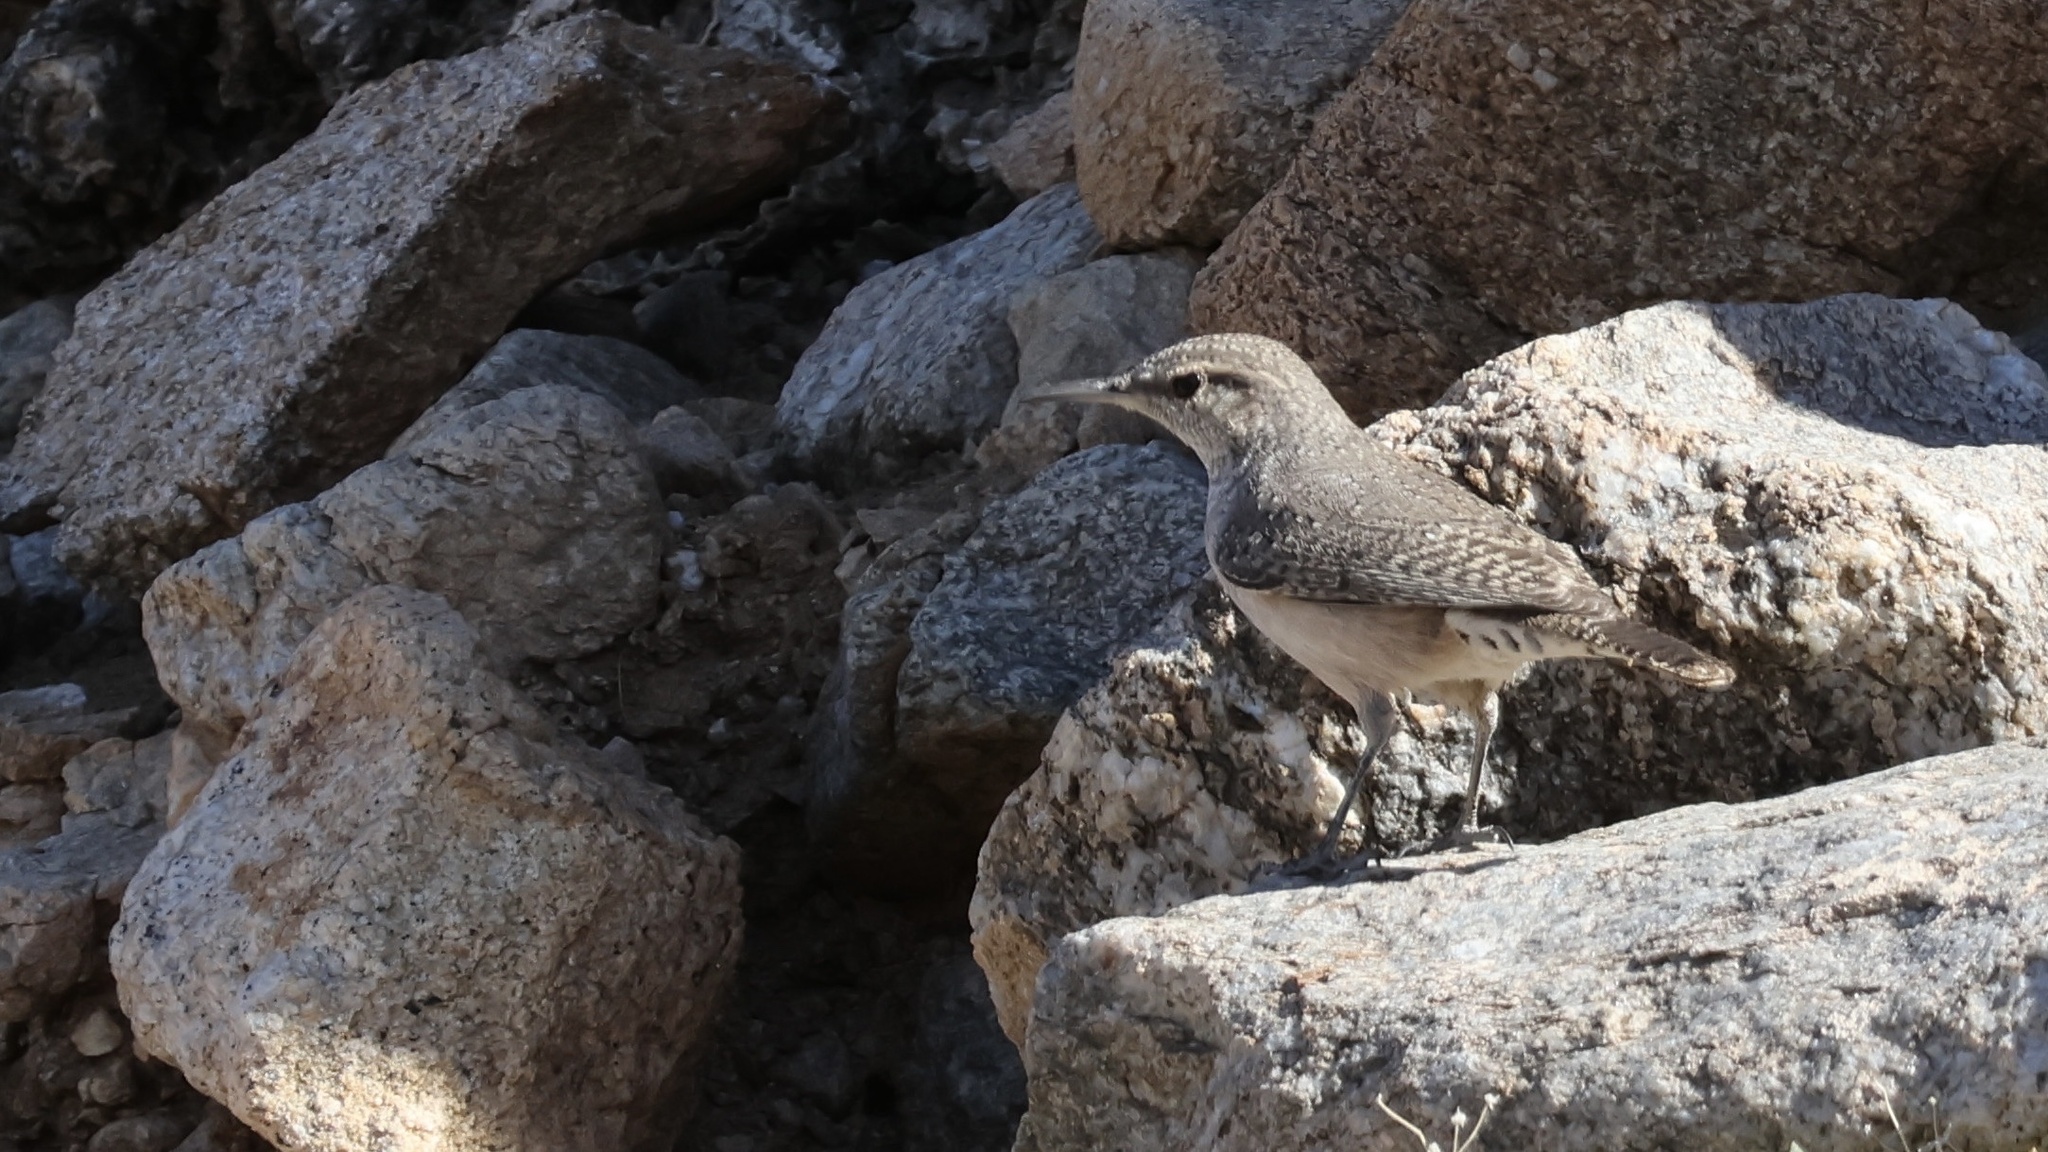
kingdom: Animalia
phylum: Chordata
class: Aves
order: Passeriformes
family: Troglodytidae
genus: Salpinctes
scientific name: Salpinctes obsoletus
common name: Rock wren
